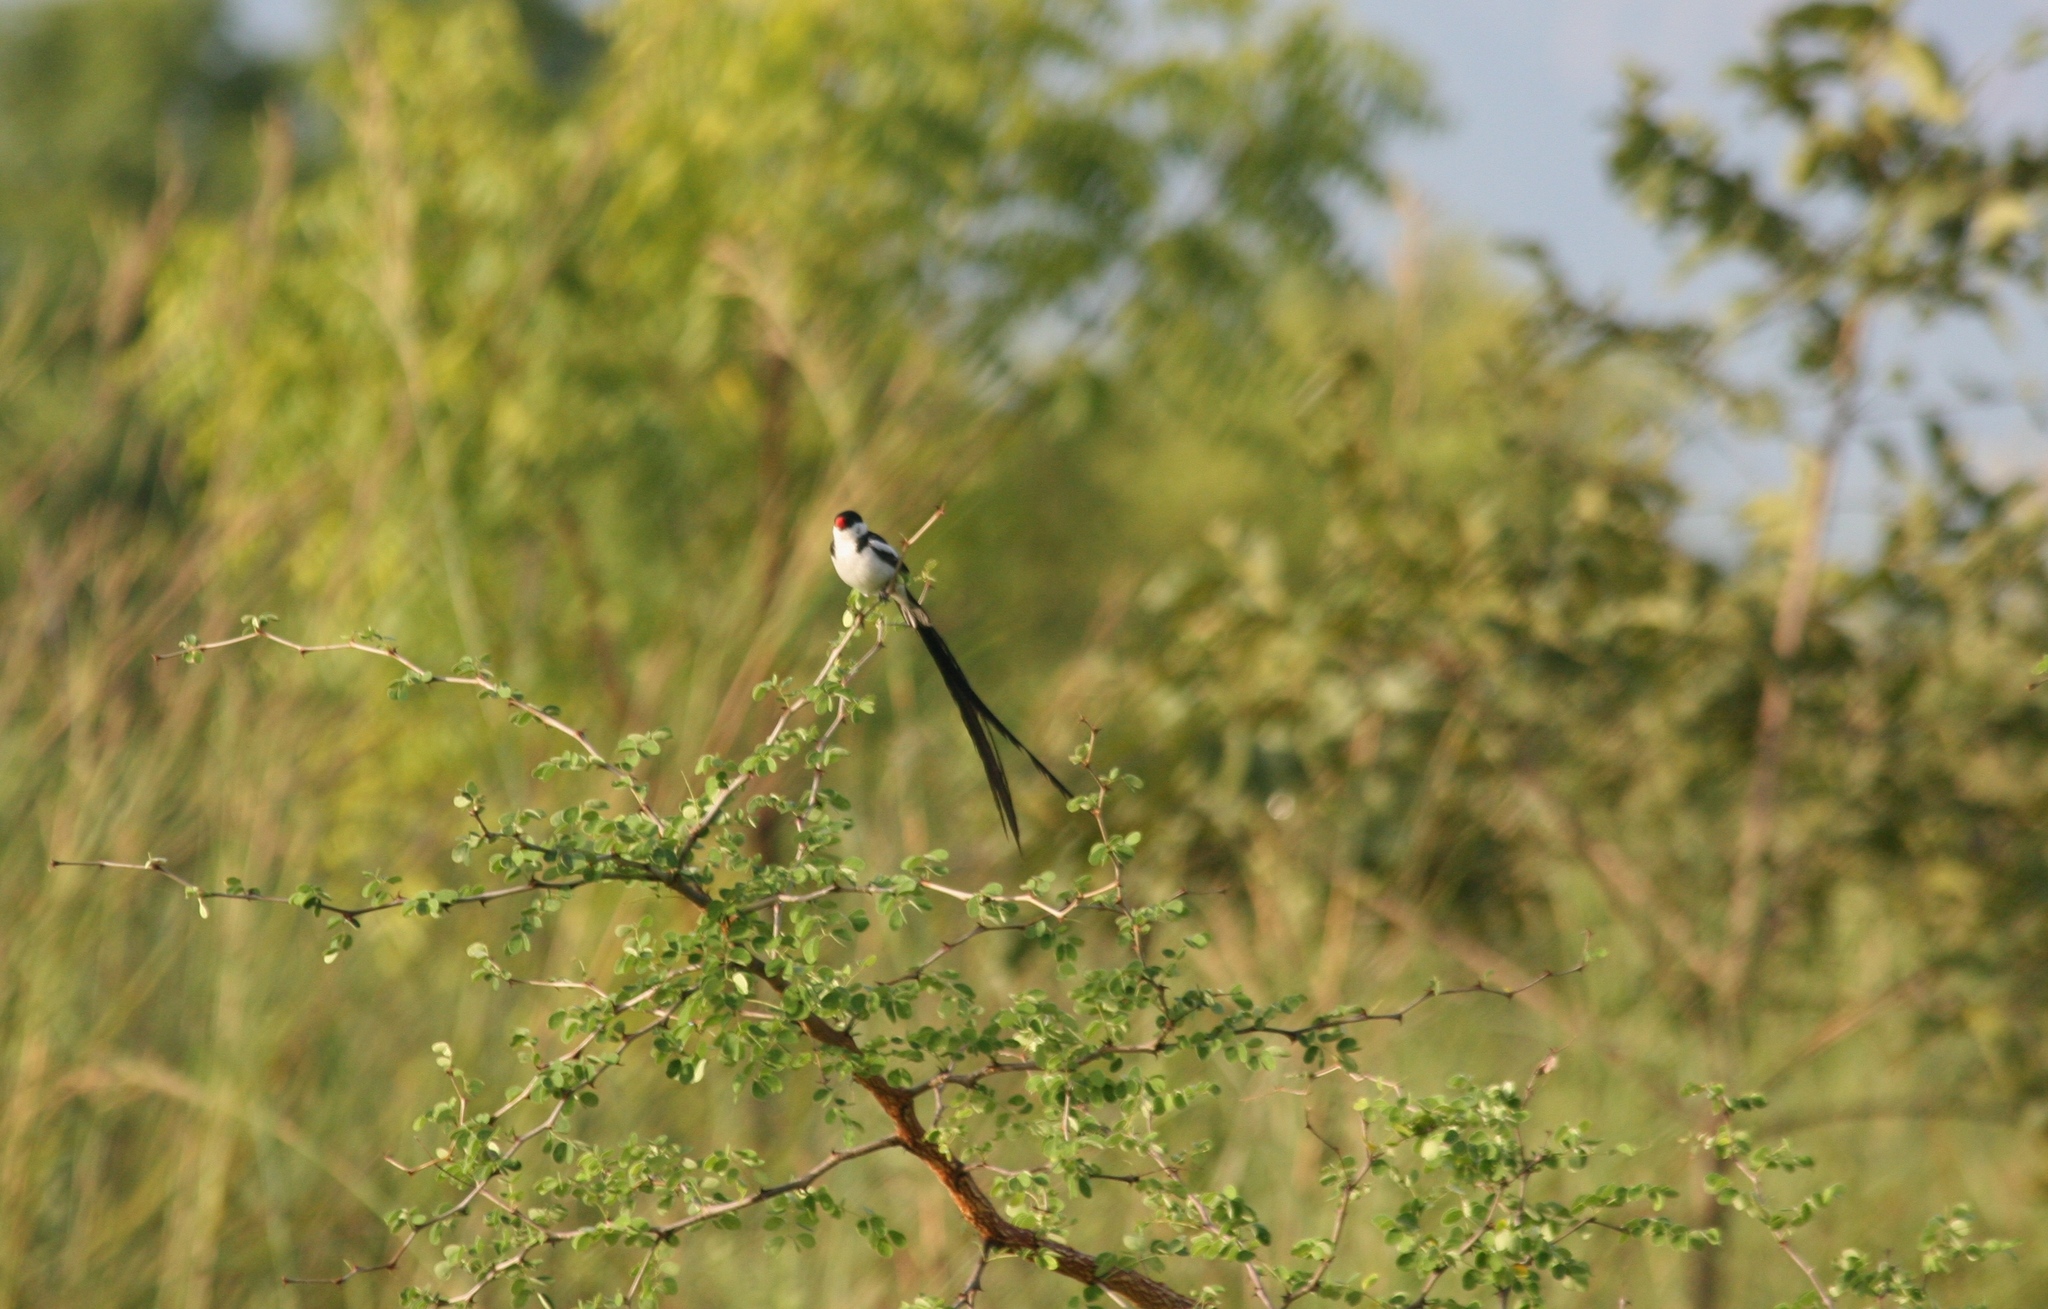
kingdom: Animalia
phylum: Chordata
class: Aves
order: Passeriformes
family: Viduidae
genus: Vidua
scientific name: Vidua macroura
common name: Pin-tailed whydah
